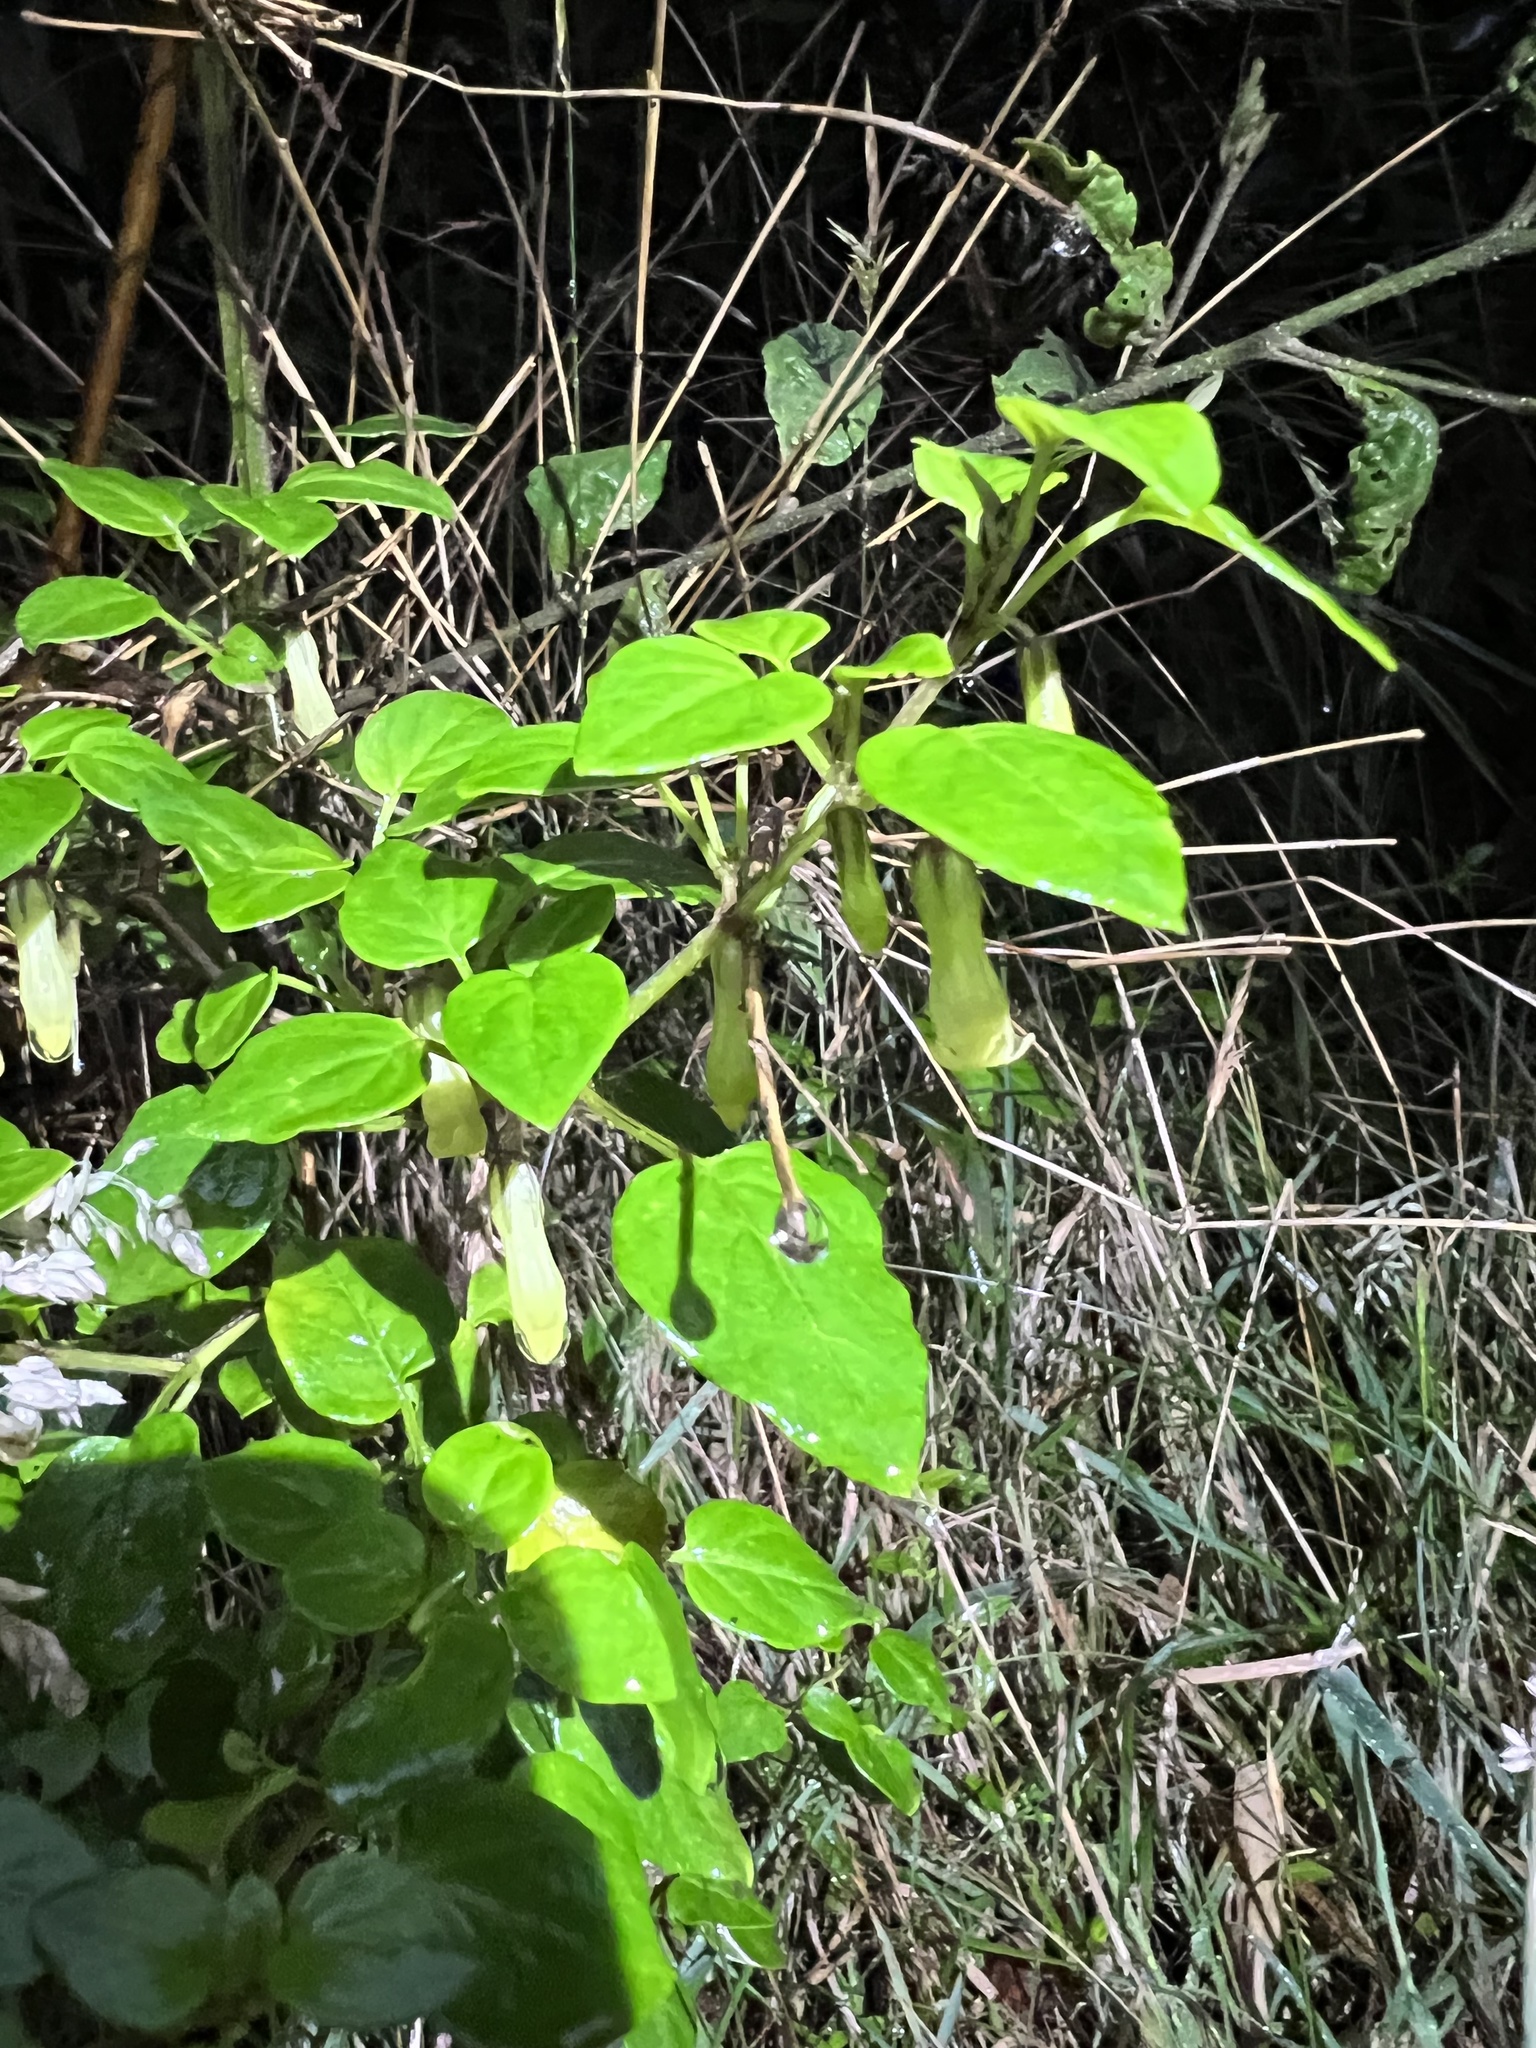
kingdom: Plantae
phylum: Tracheophyta
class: Magnoliopsida
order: Solanales
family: Solanaceae
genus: Salpichroa
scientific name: Salpichroa tristis
